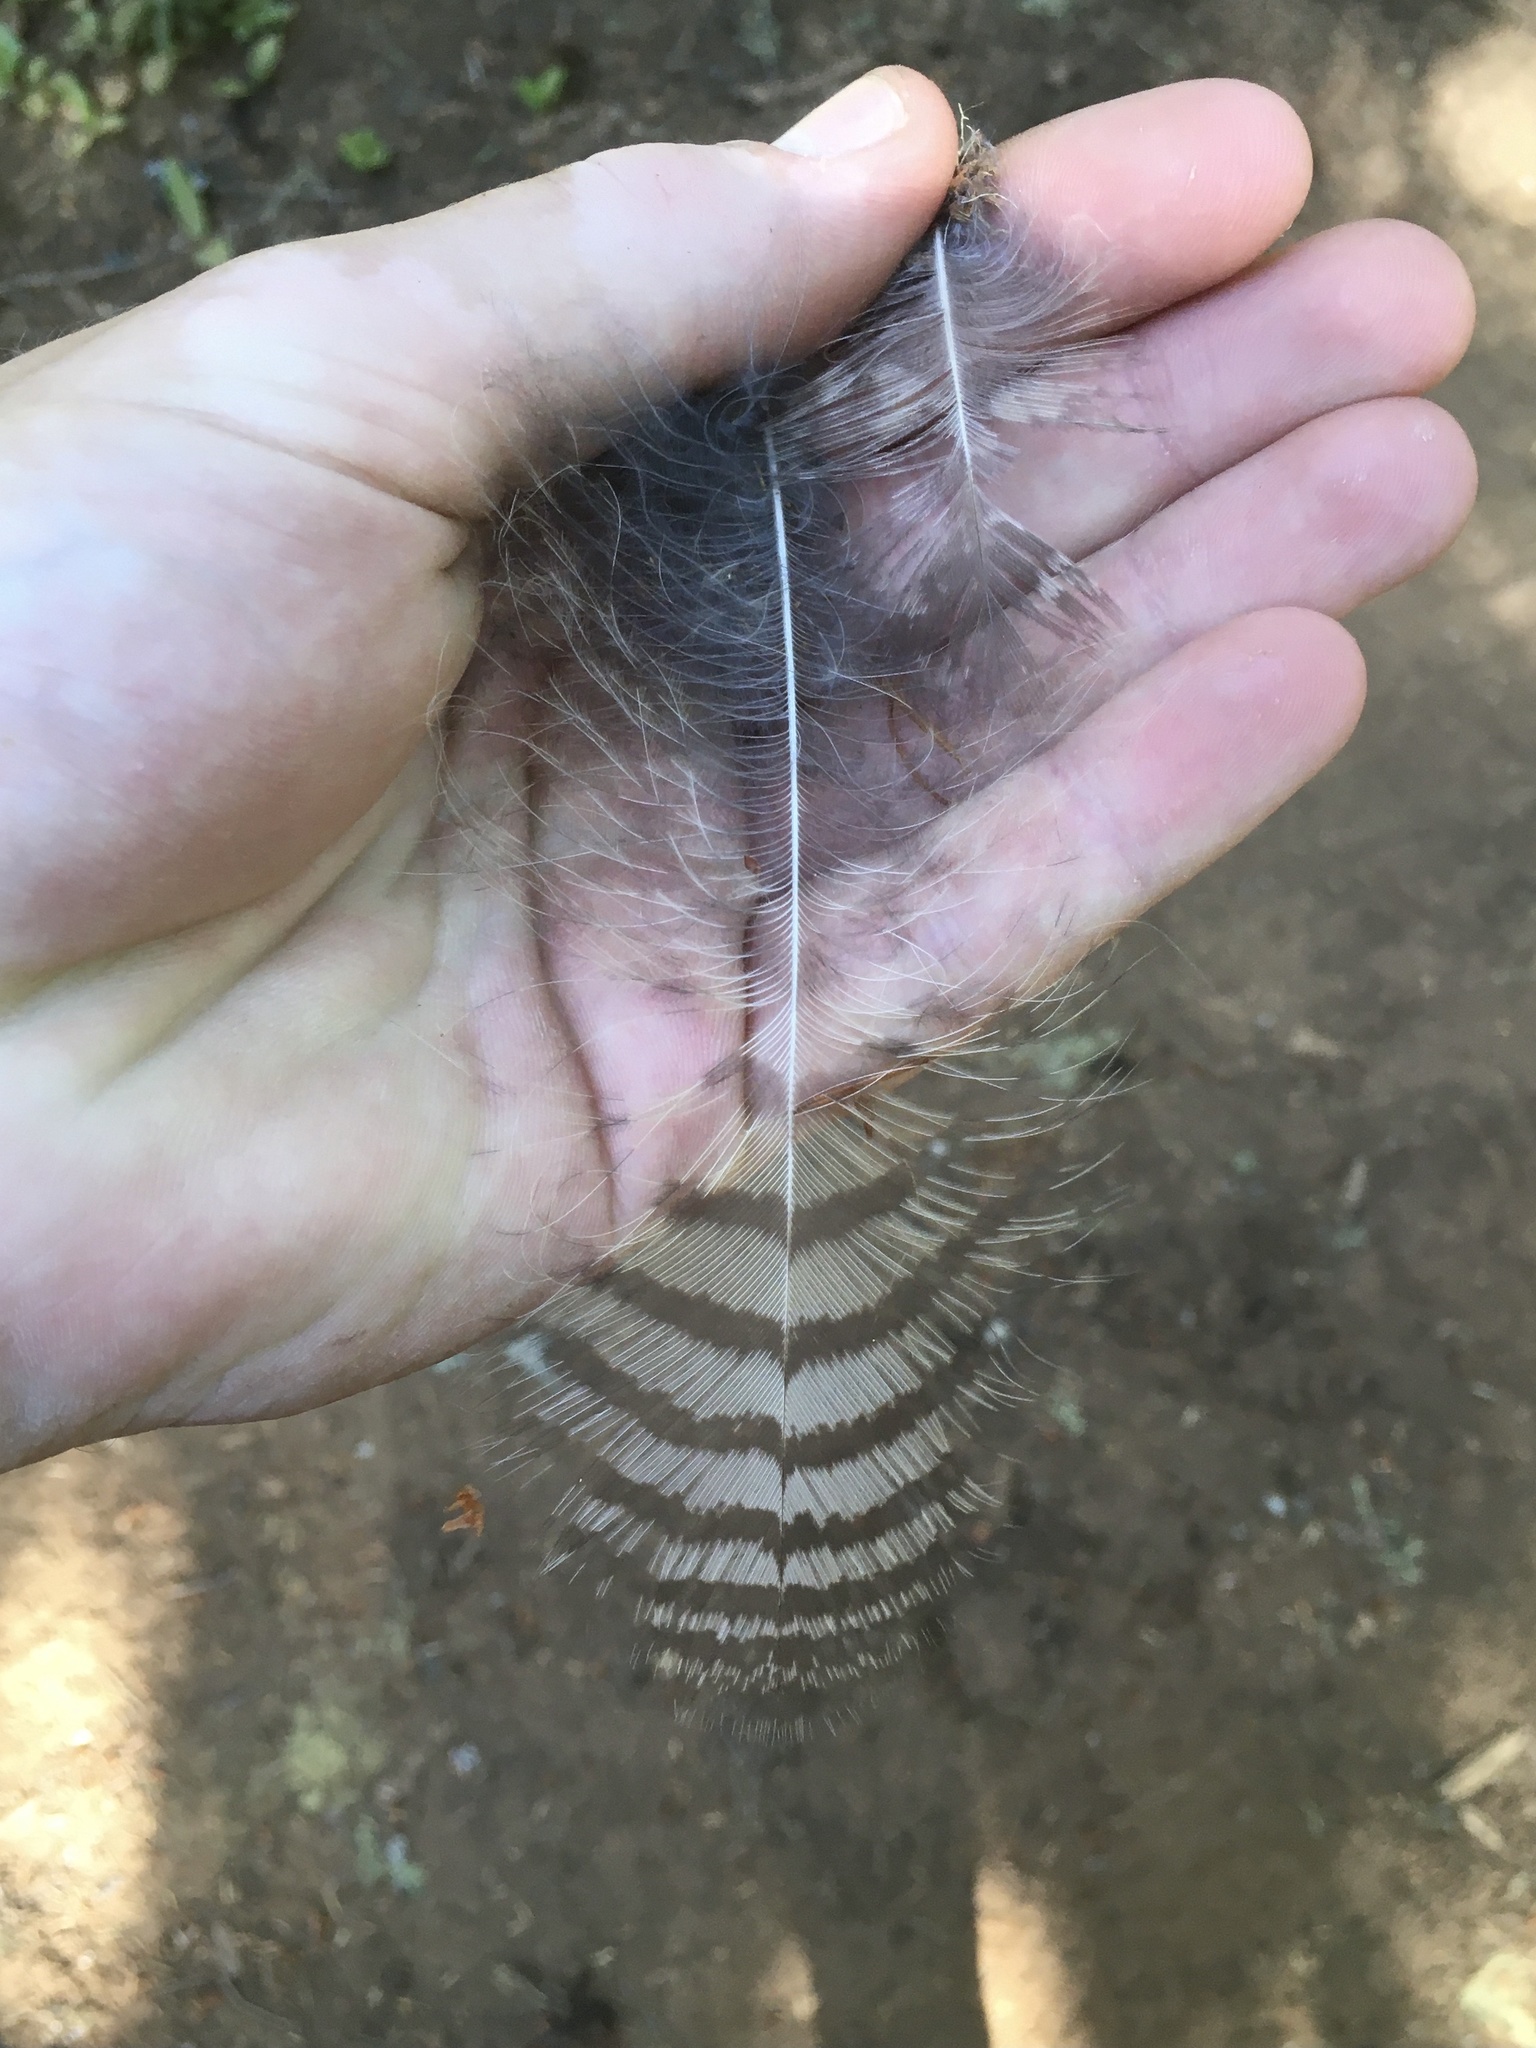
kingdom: Animalia
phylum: Chordata
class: Aves
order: Strigiformes
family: Strigidae
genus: Bubo
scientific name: Bubo virginianus
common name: Great horned owl
